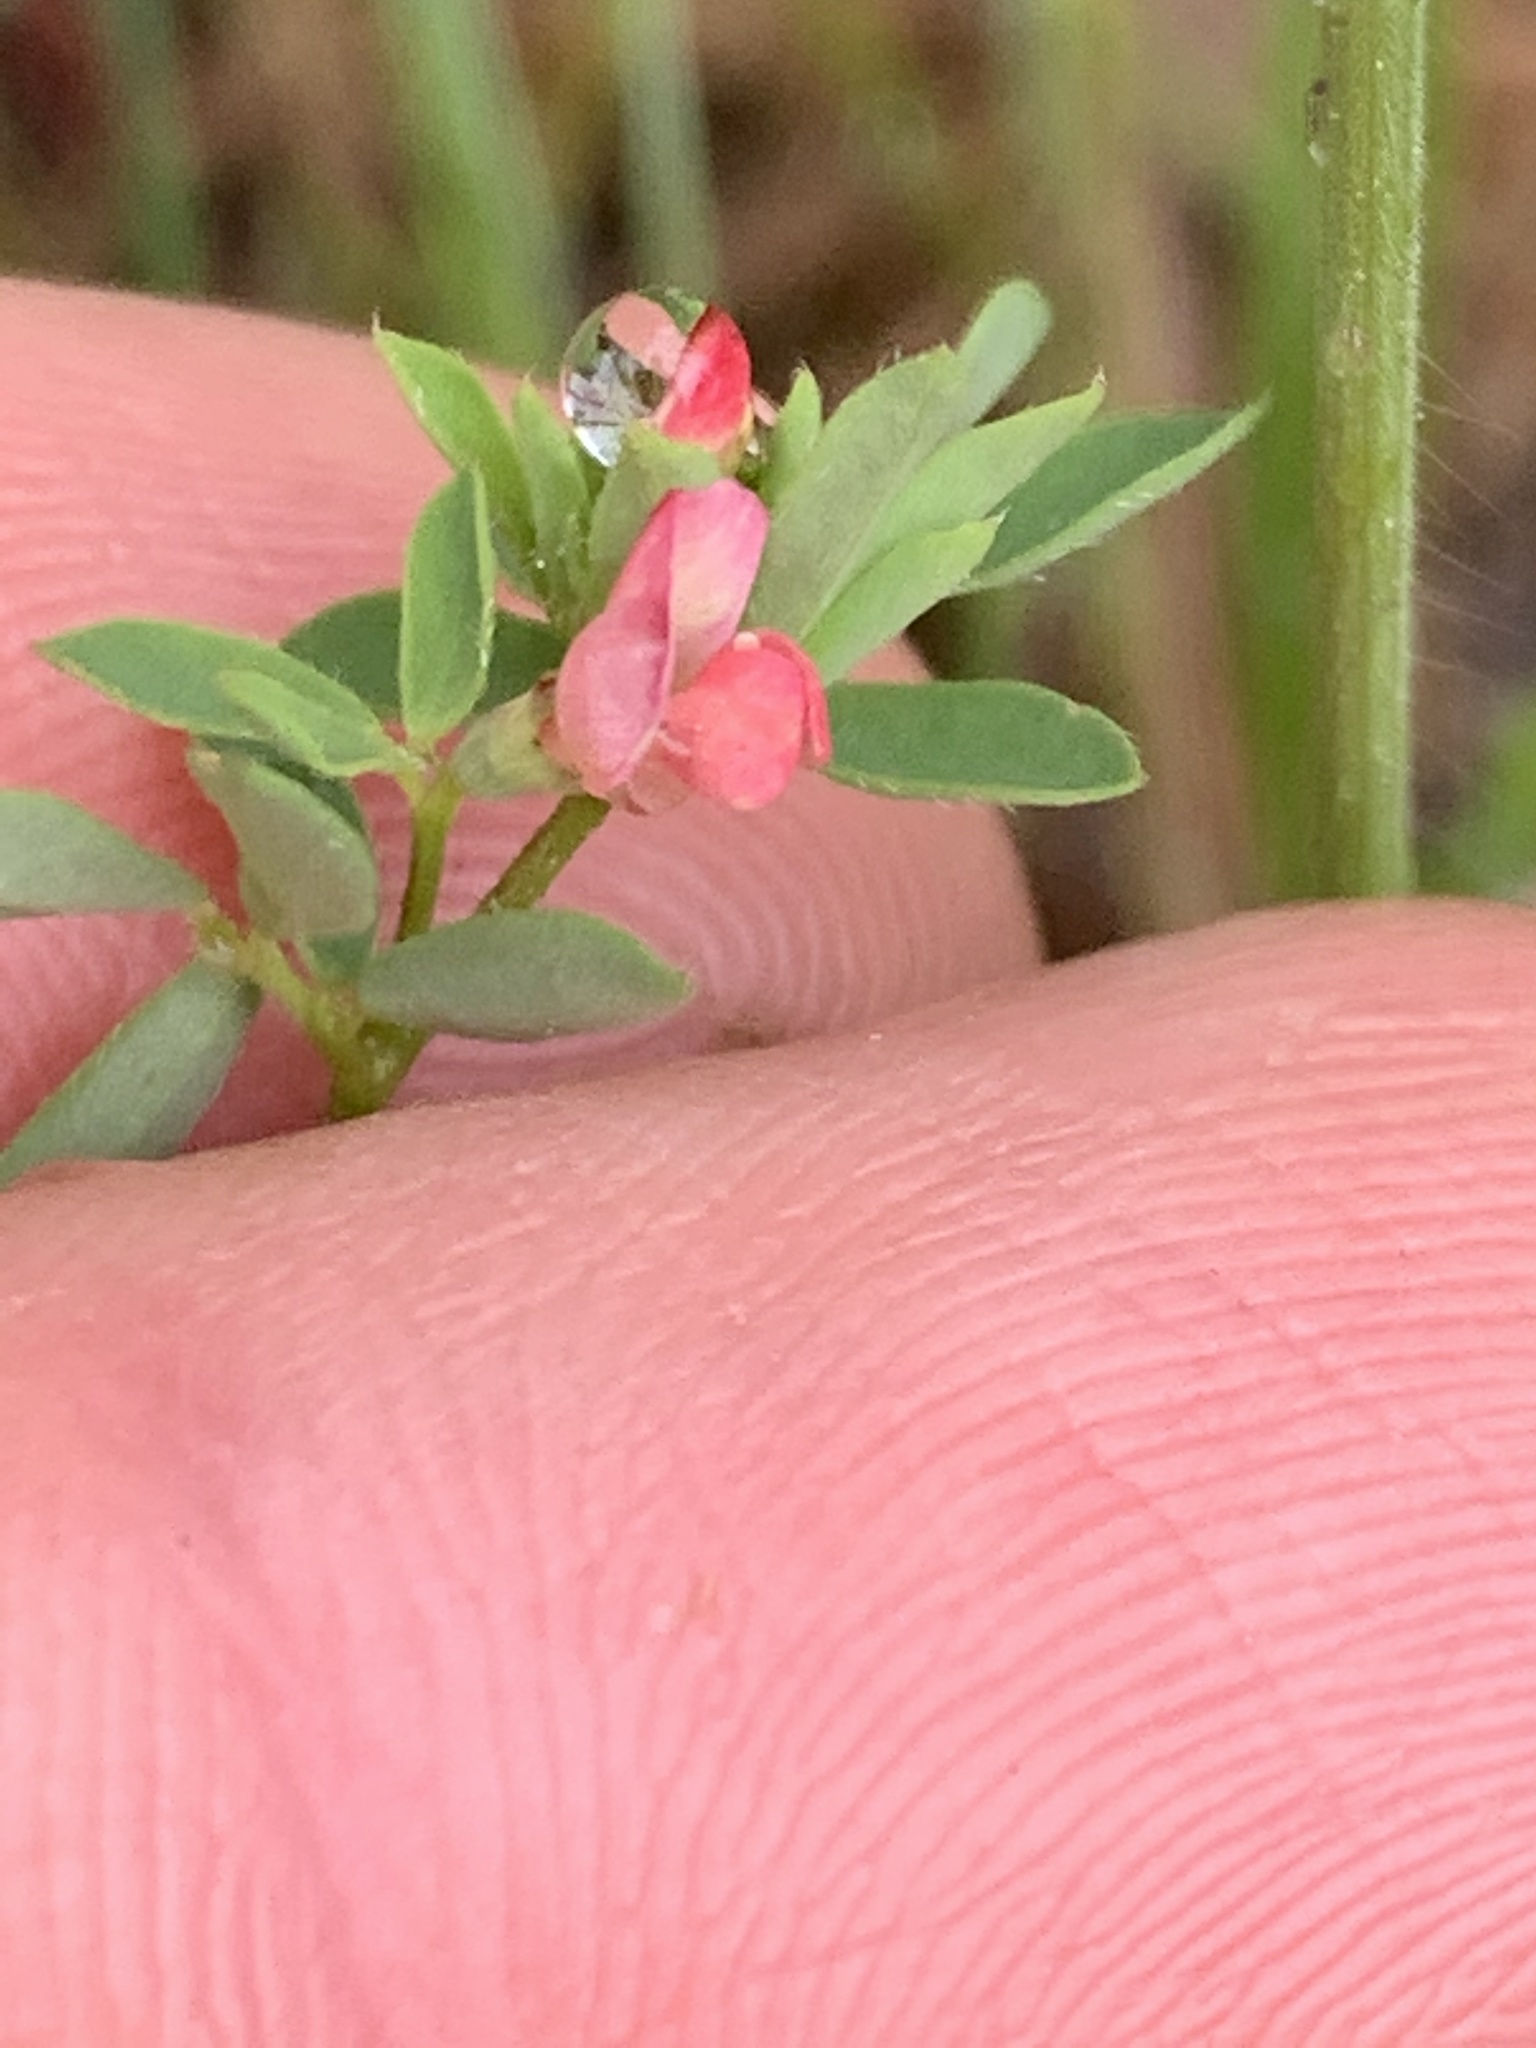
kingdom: Plantae
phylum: Tracheophyta
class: Magnoliopsida
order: Fabales
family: Fabaceae
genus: Acmispon
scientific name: Acmispon parviflorus
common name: Desert deer-vetch
